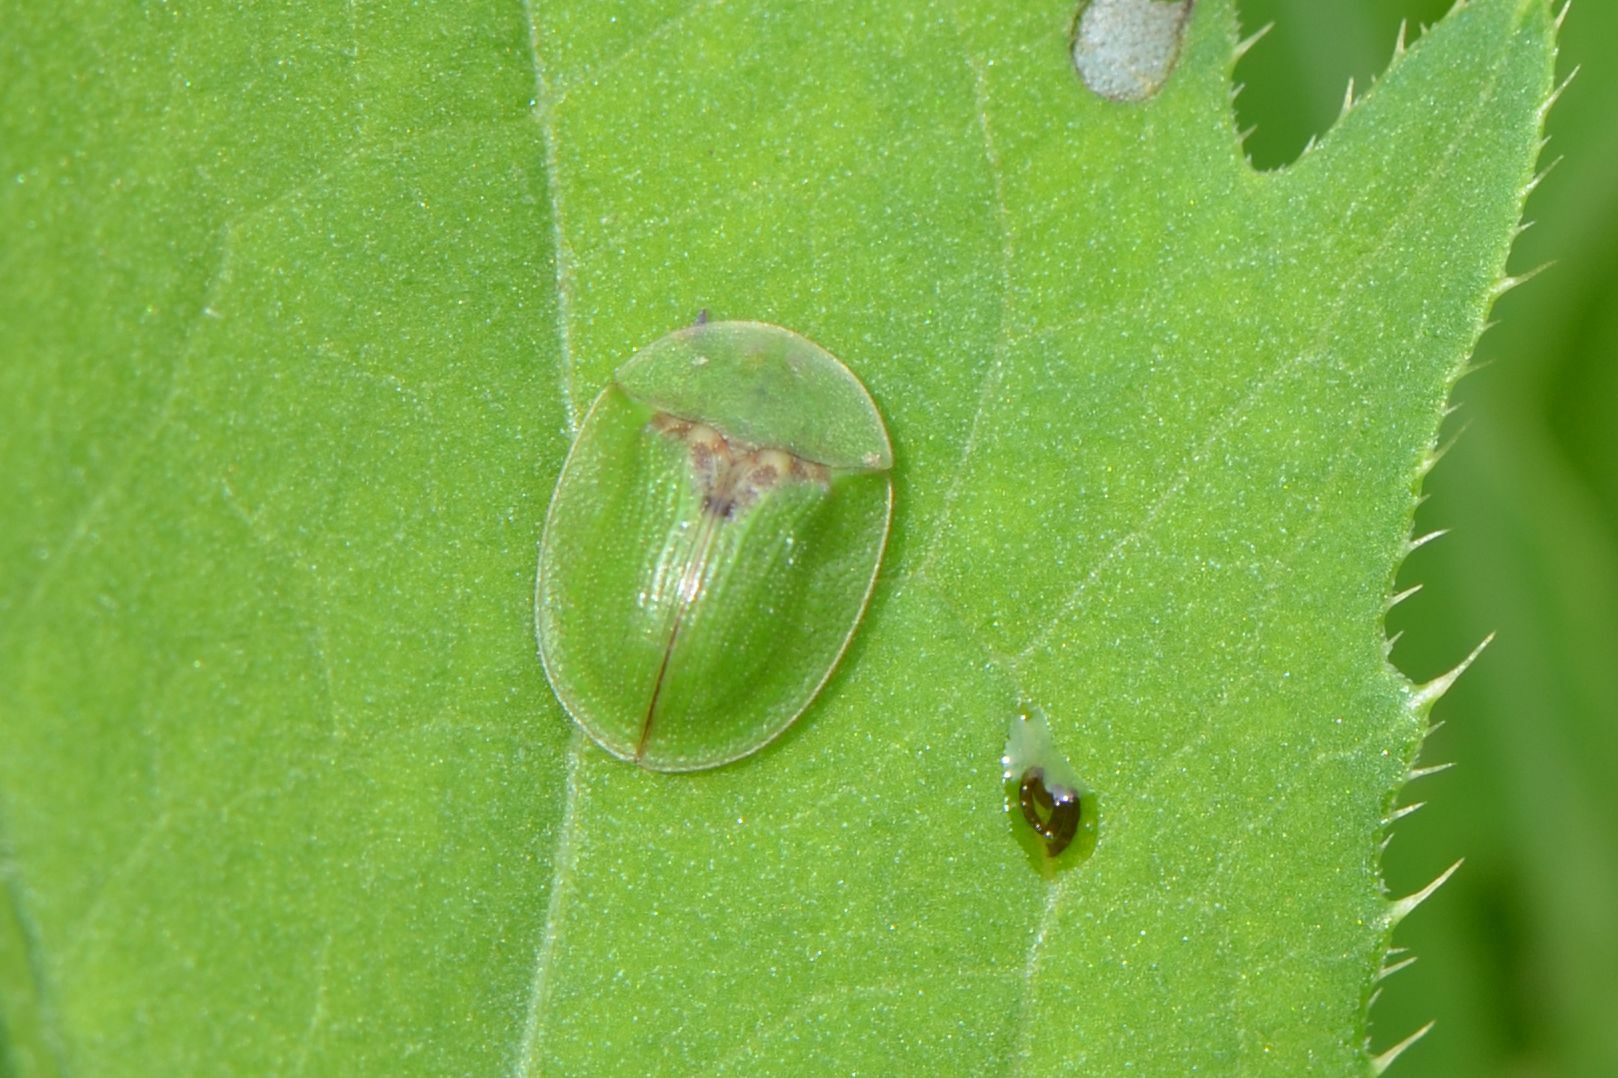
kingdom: Animalia
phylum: Arthropoda
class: Insecta
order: Coleoptera
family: Chrysomelidae
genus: Cassida
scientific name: Cassida rubiginosa
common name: Thistle tortoise beetle
